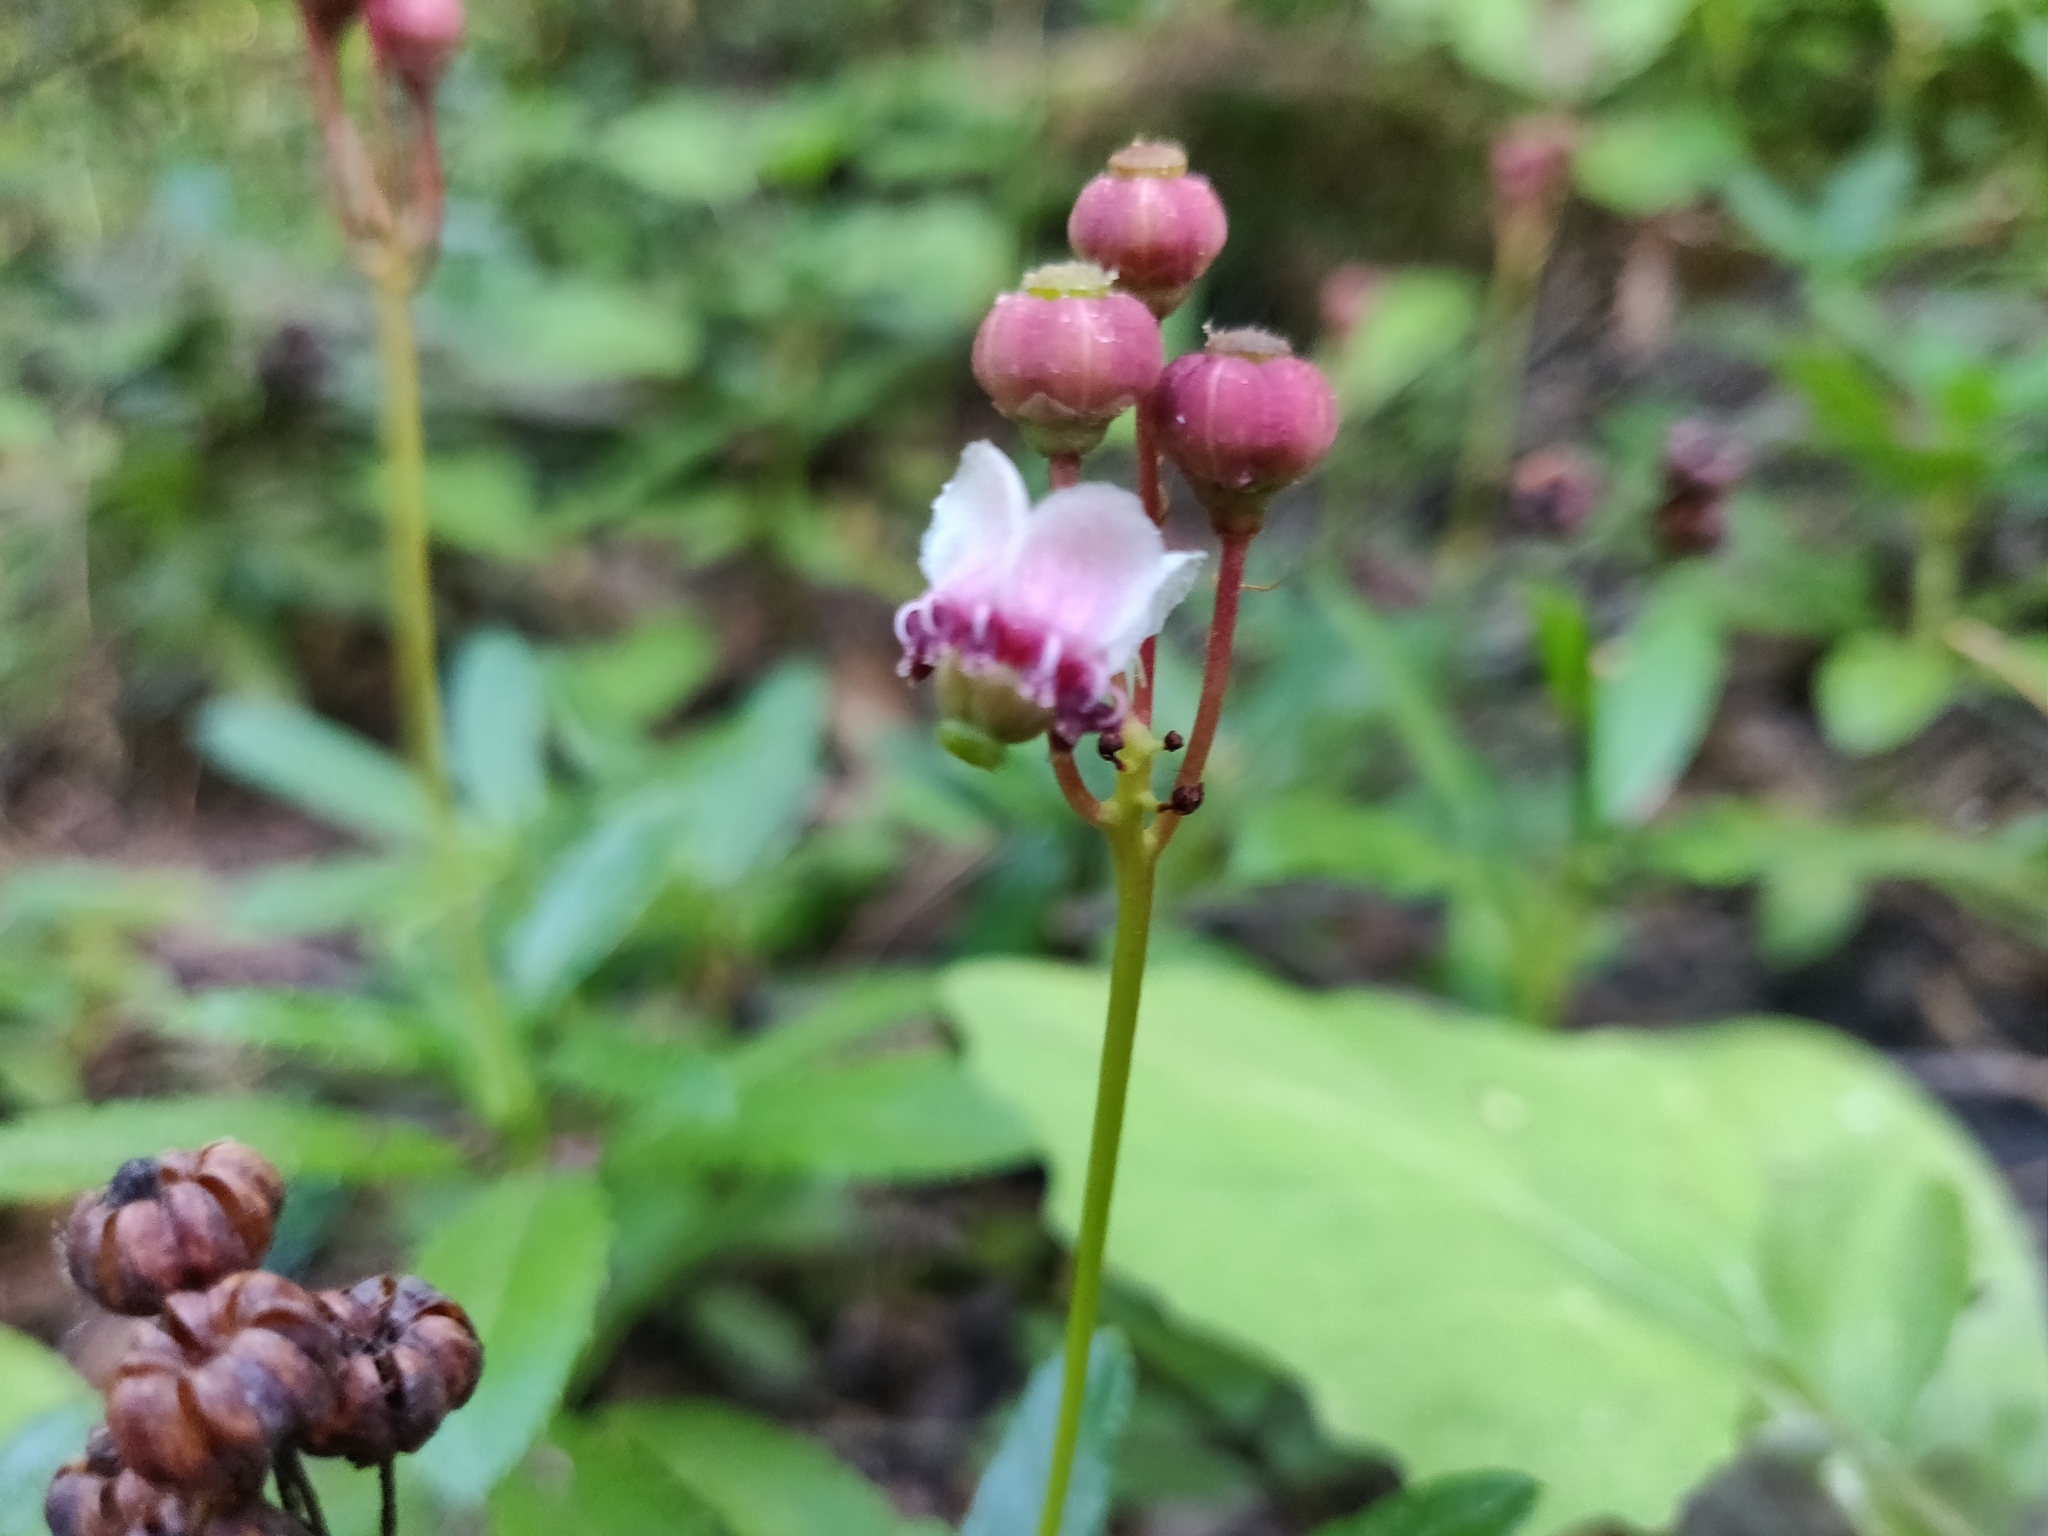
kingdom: Plantae
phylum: Tracheophyta
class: Magnoliopsida
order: Ericales
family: Ericaceae
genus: Chimaphila
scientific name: Chimaphila umbellata
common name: Pipsissewa
